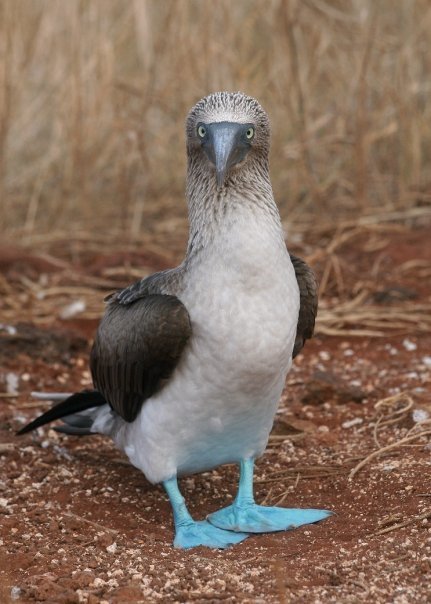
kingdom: Animalia
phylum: Chordata
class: Aves
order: Suliformes
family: Sulidae
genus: Sula
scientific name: Sula nebouxii
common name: Blue-footed booby
